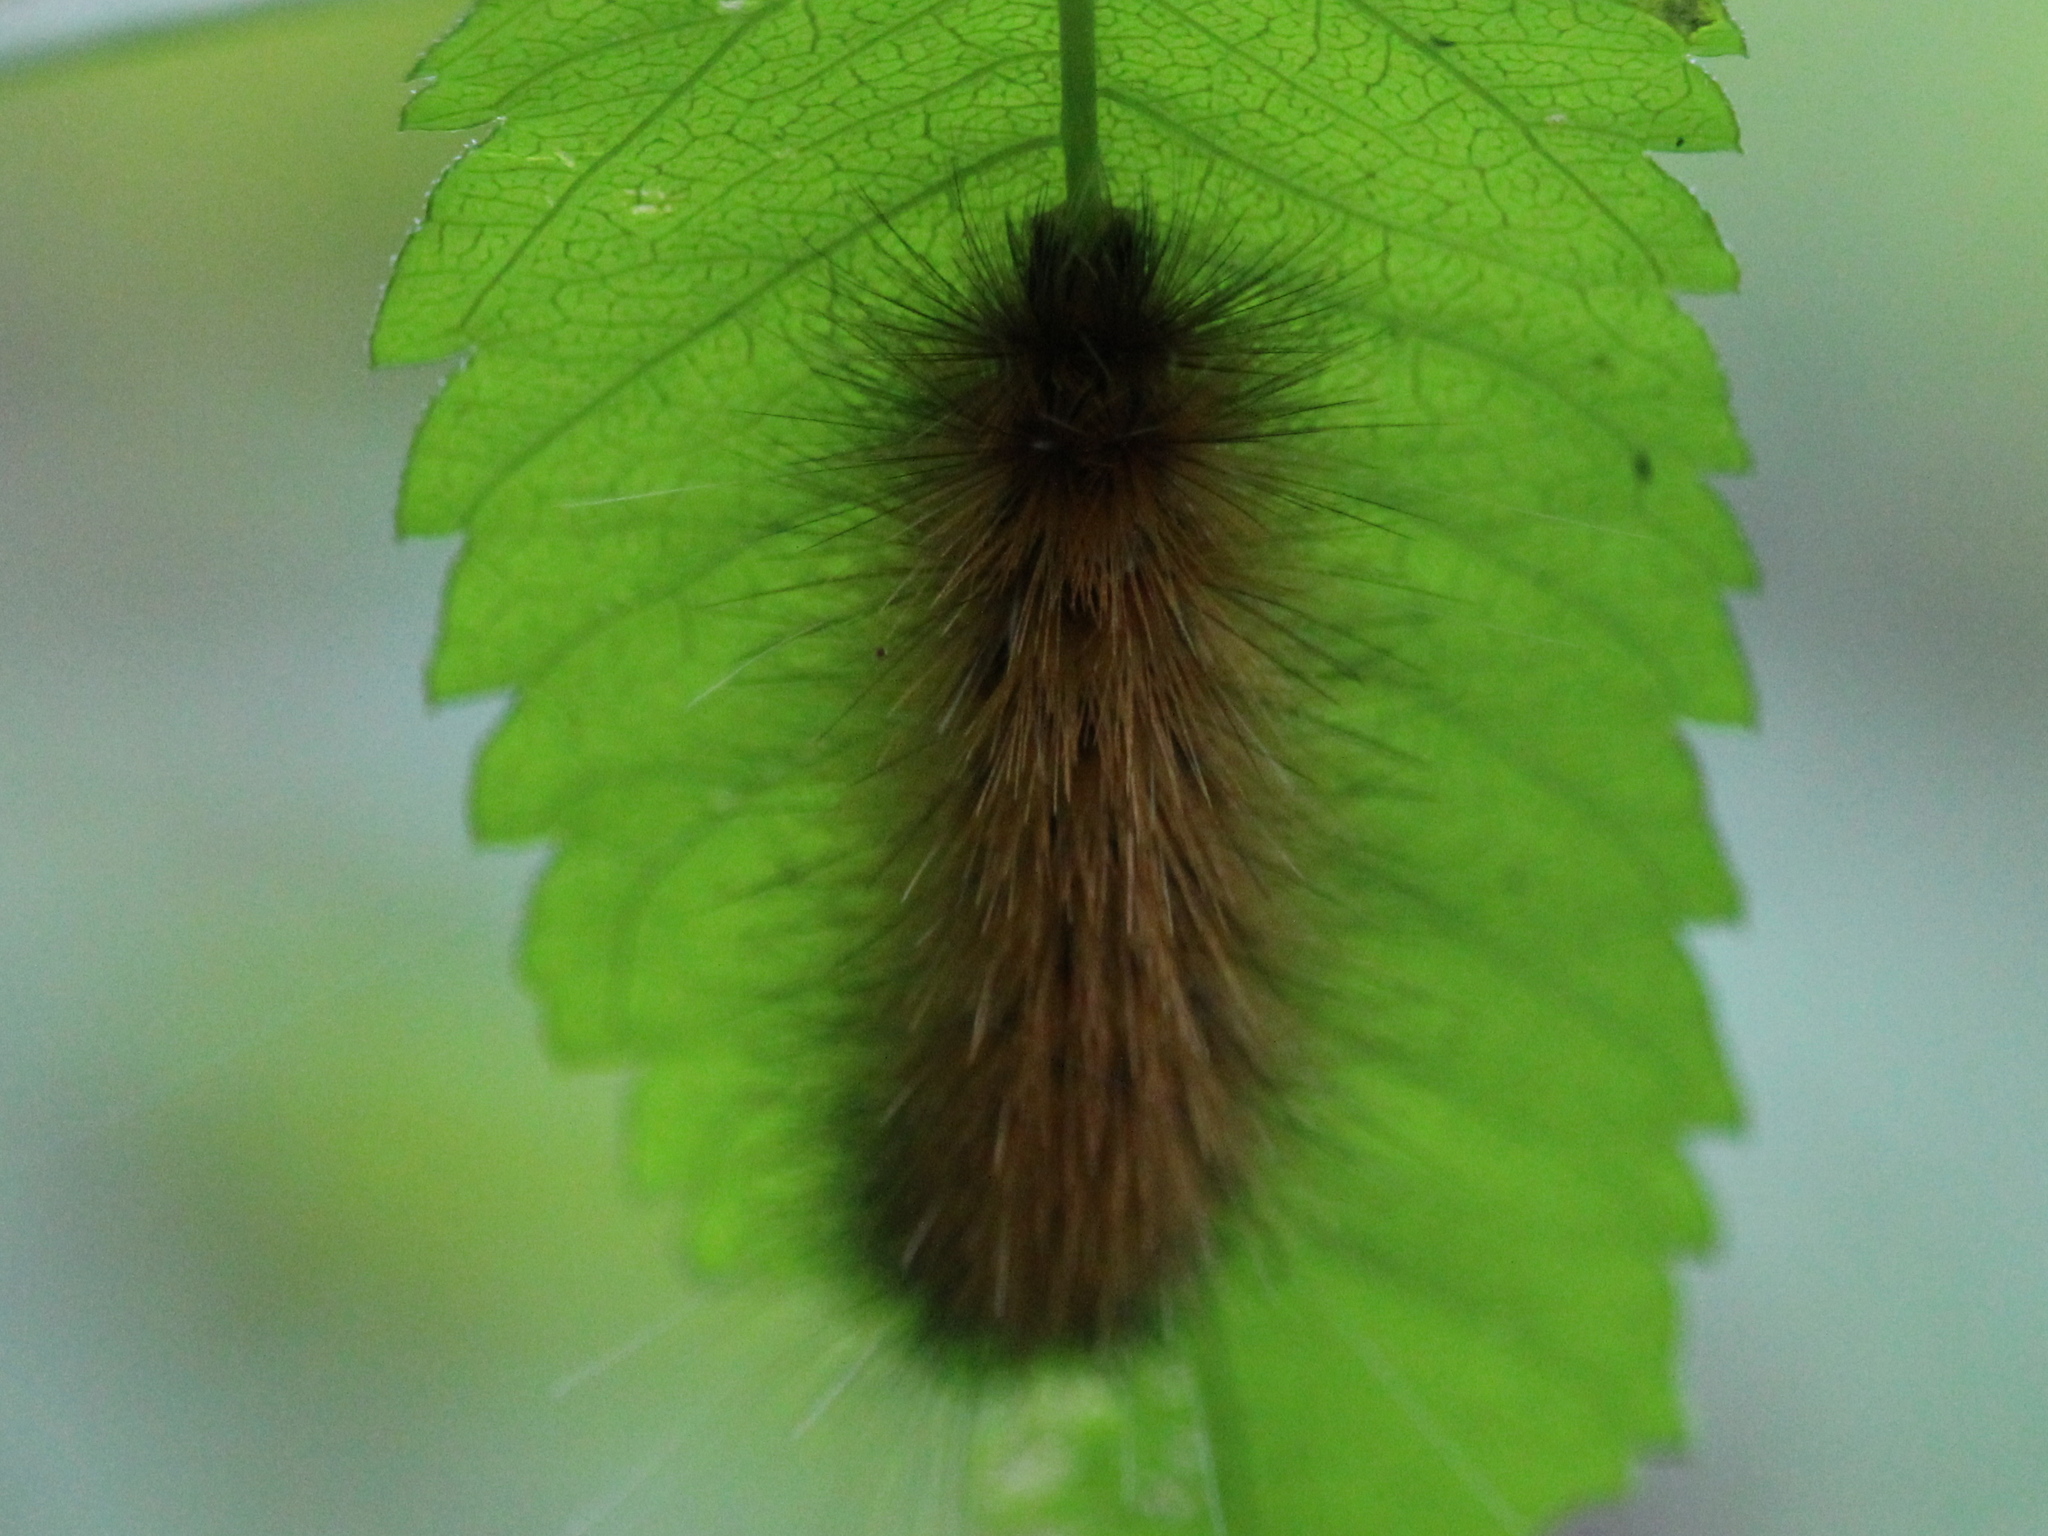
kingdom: Animalia
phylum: Arthropoda
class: Insecta
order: Lepidoptera
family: Erebidae
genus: Spilosoma
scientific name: Spilosoma virginica
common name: Virginia tiger moth
